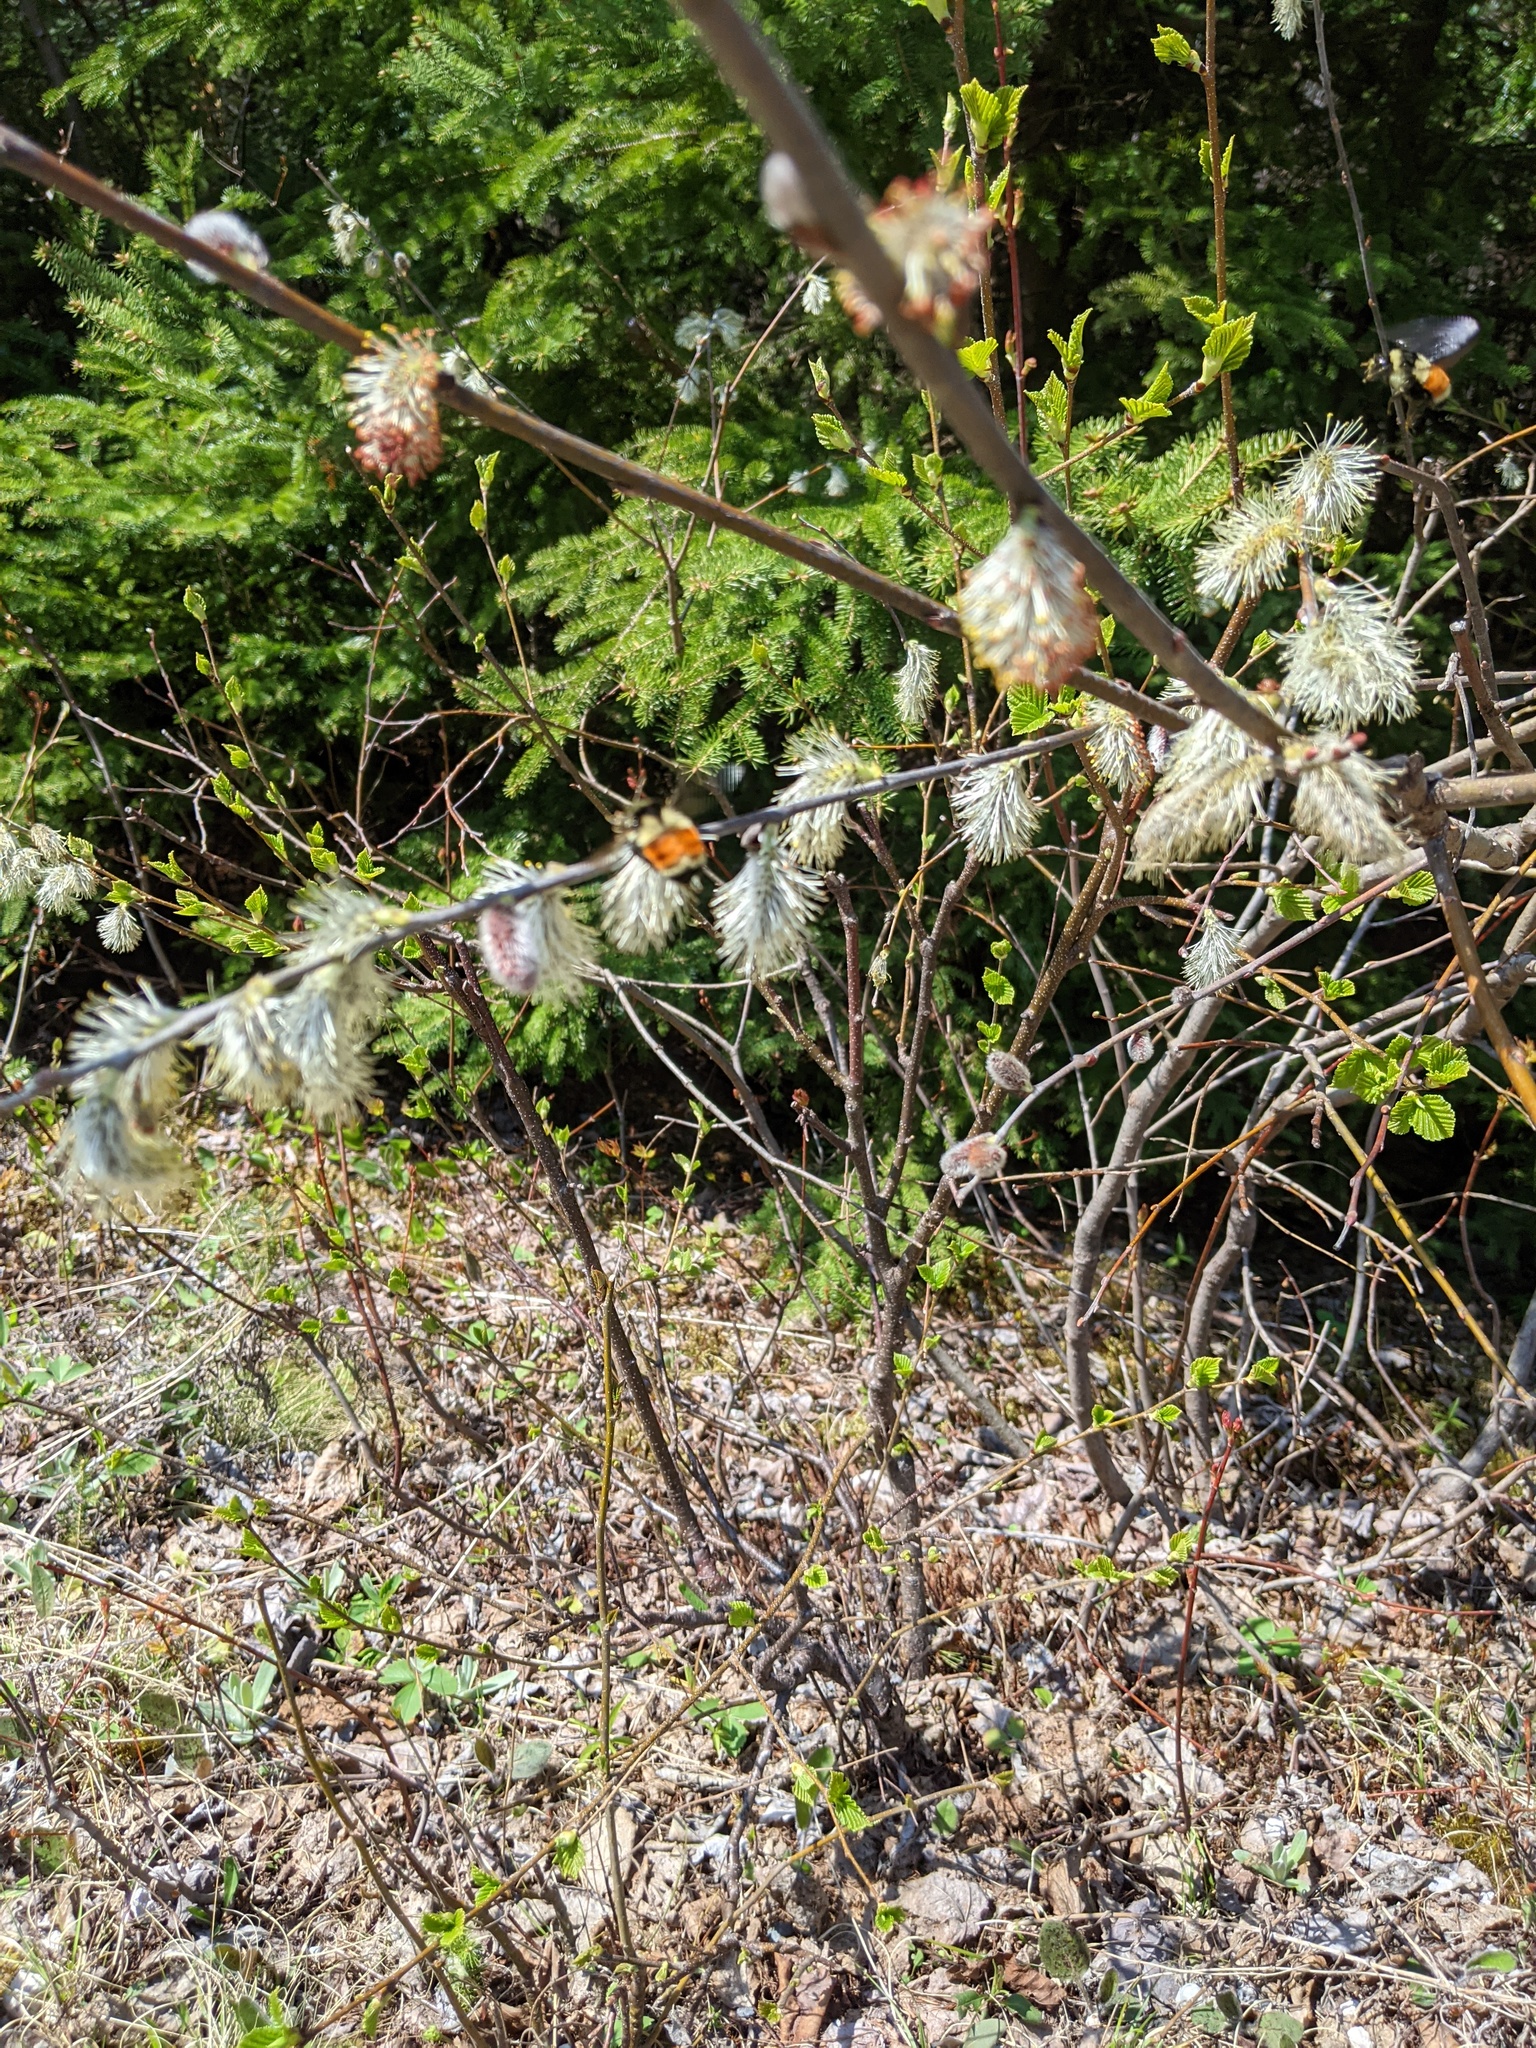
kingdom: Animalia
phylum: Arthropoda
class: Insecta
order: Hymenoptera
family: Apidae
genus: Bombus
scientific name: Bombus ternarius
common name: Tri-colored bumble bee
